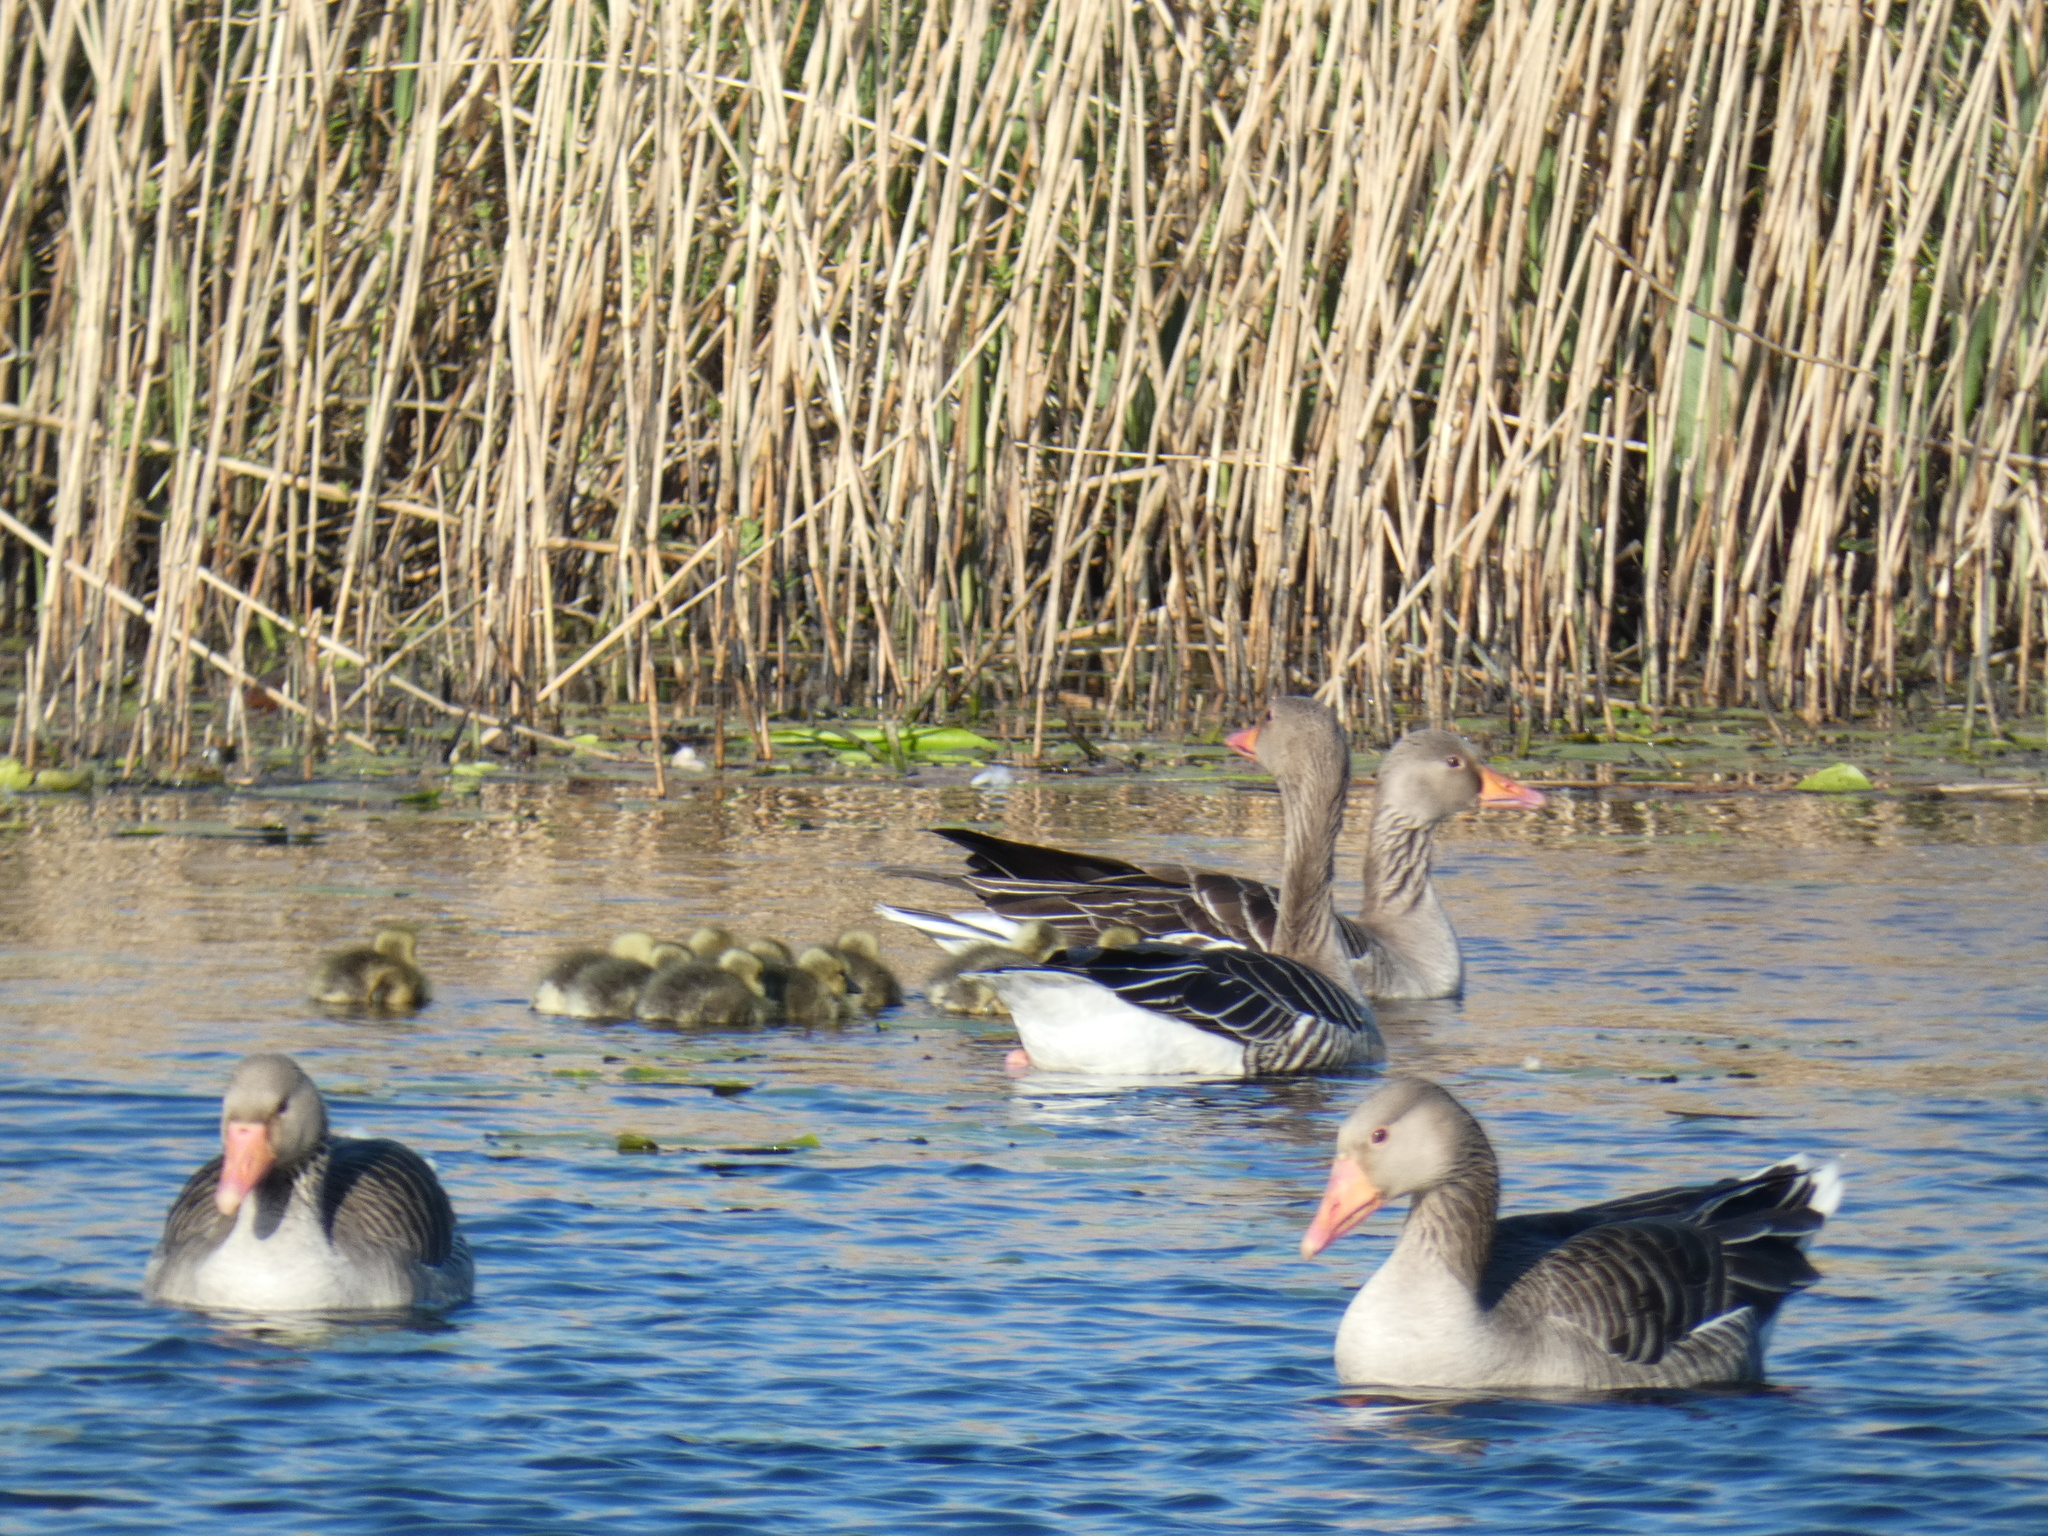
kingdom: Animalia
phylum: Chordata
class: Aves
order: Anseriformes
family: Anatidae
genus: Anser
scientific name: Anser anser
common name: Greylag goose
